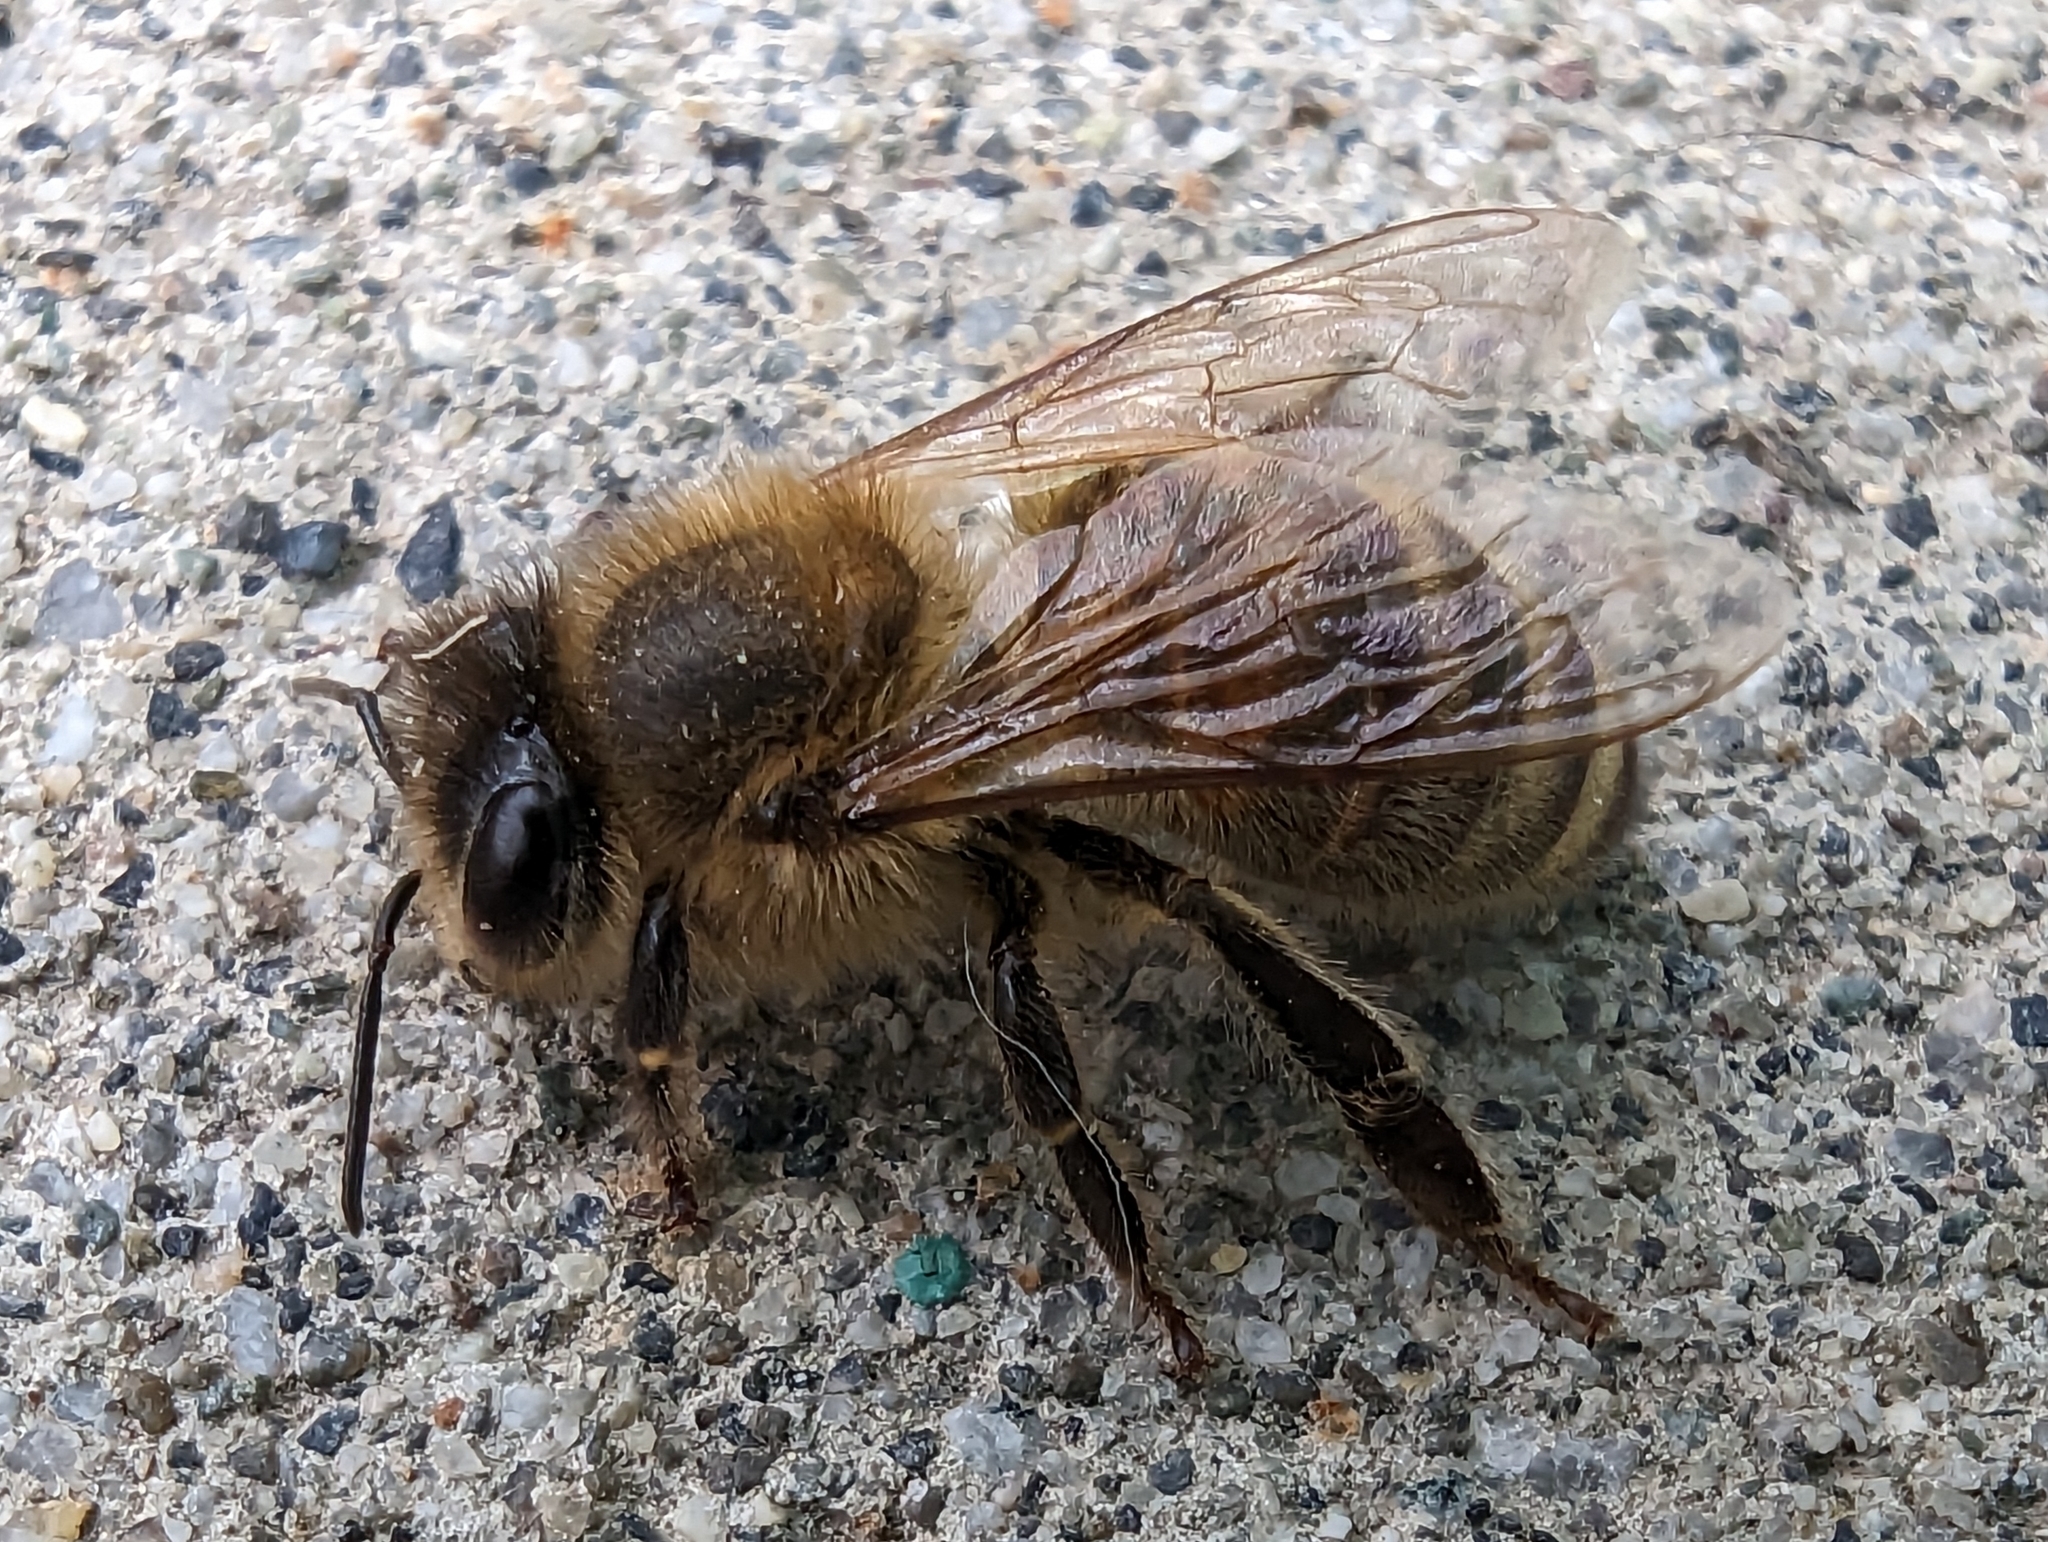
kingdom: Animalia
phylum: Arthropoda
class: Insecta
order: Hymenoptera
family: Apidae
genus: Apis
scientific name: Apis mellifera
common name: Honey bee
